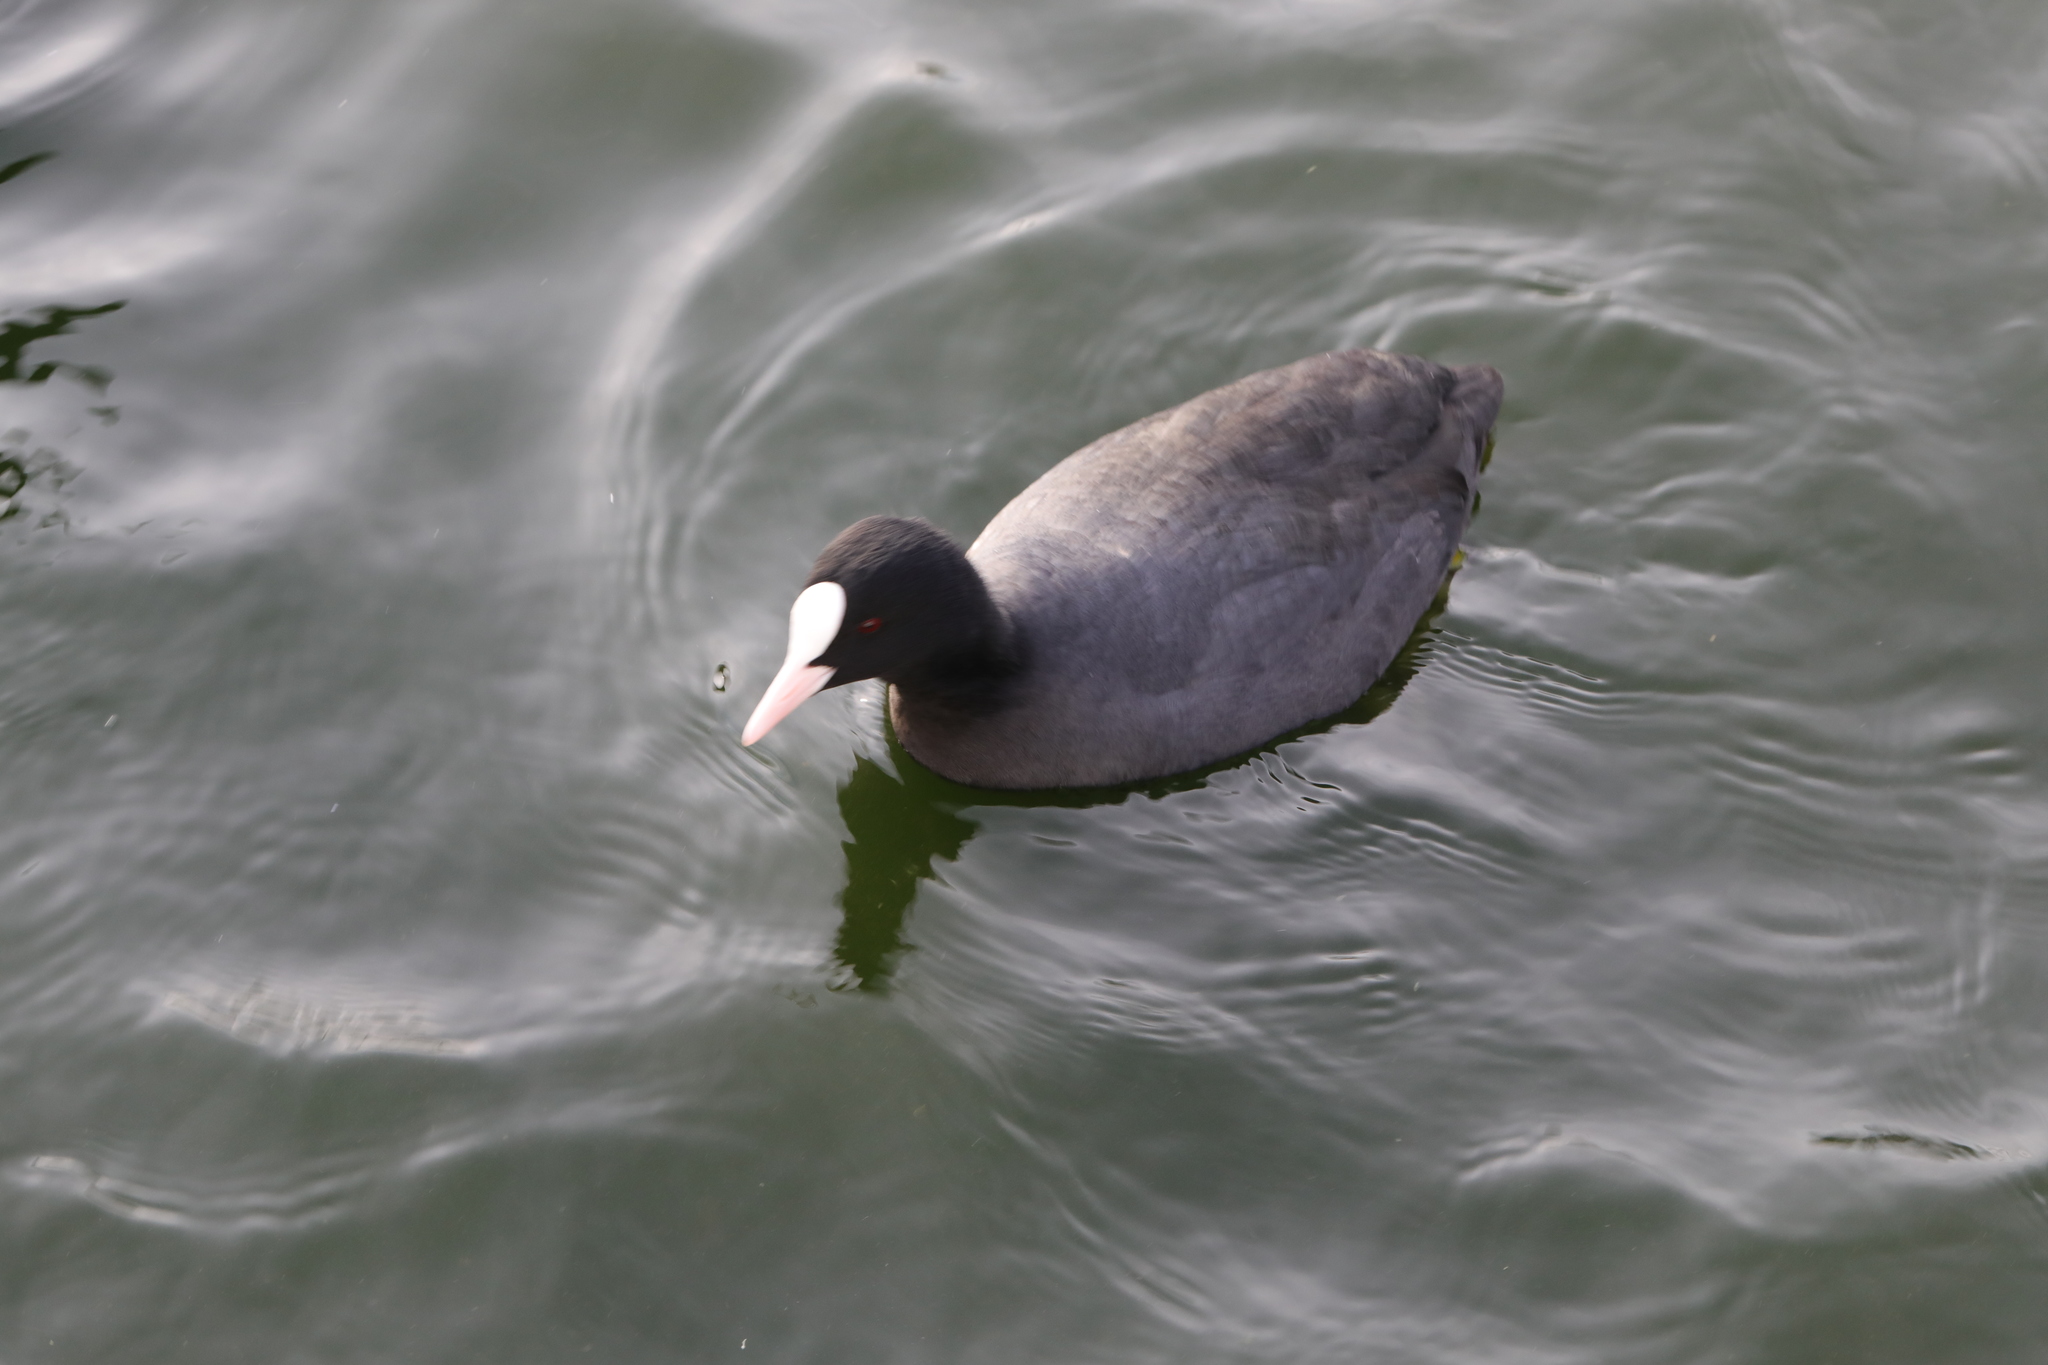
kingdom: Animalia
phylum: Chordata
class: Aves
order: Gruiformes
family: Rallidae
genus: Fulica
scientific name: Fulica atra
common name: Eurasian coot
